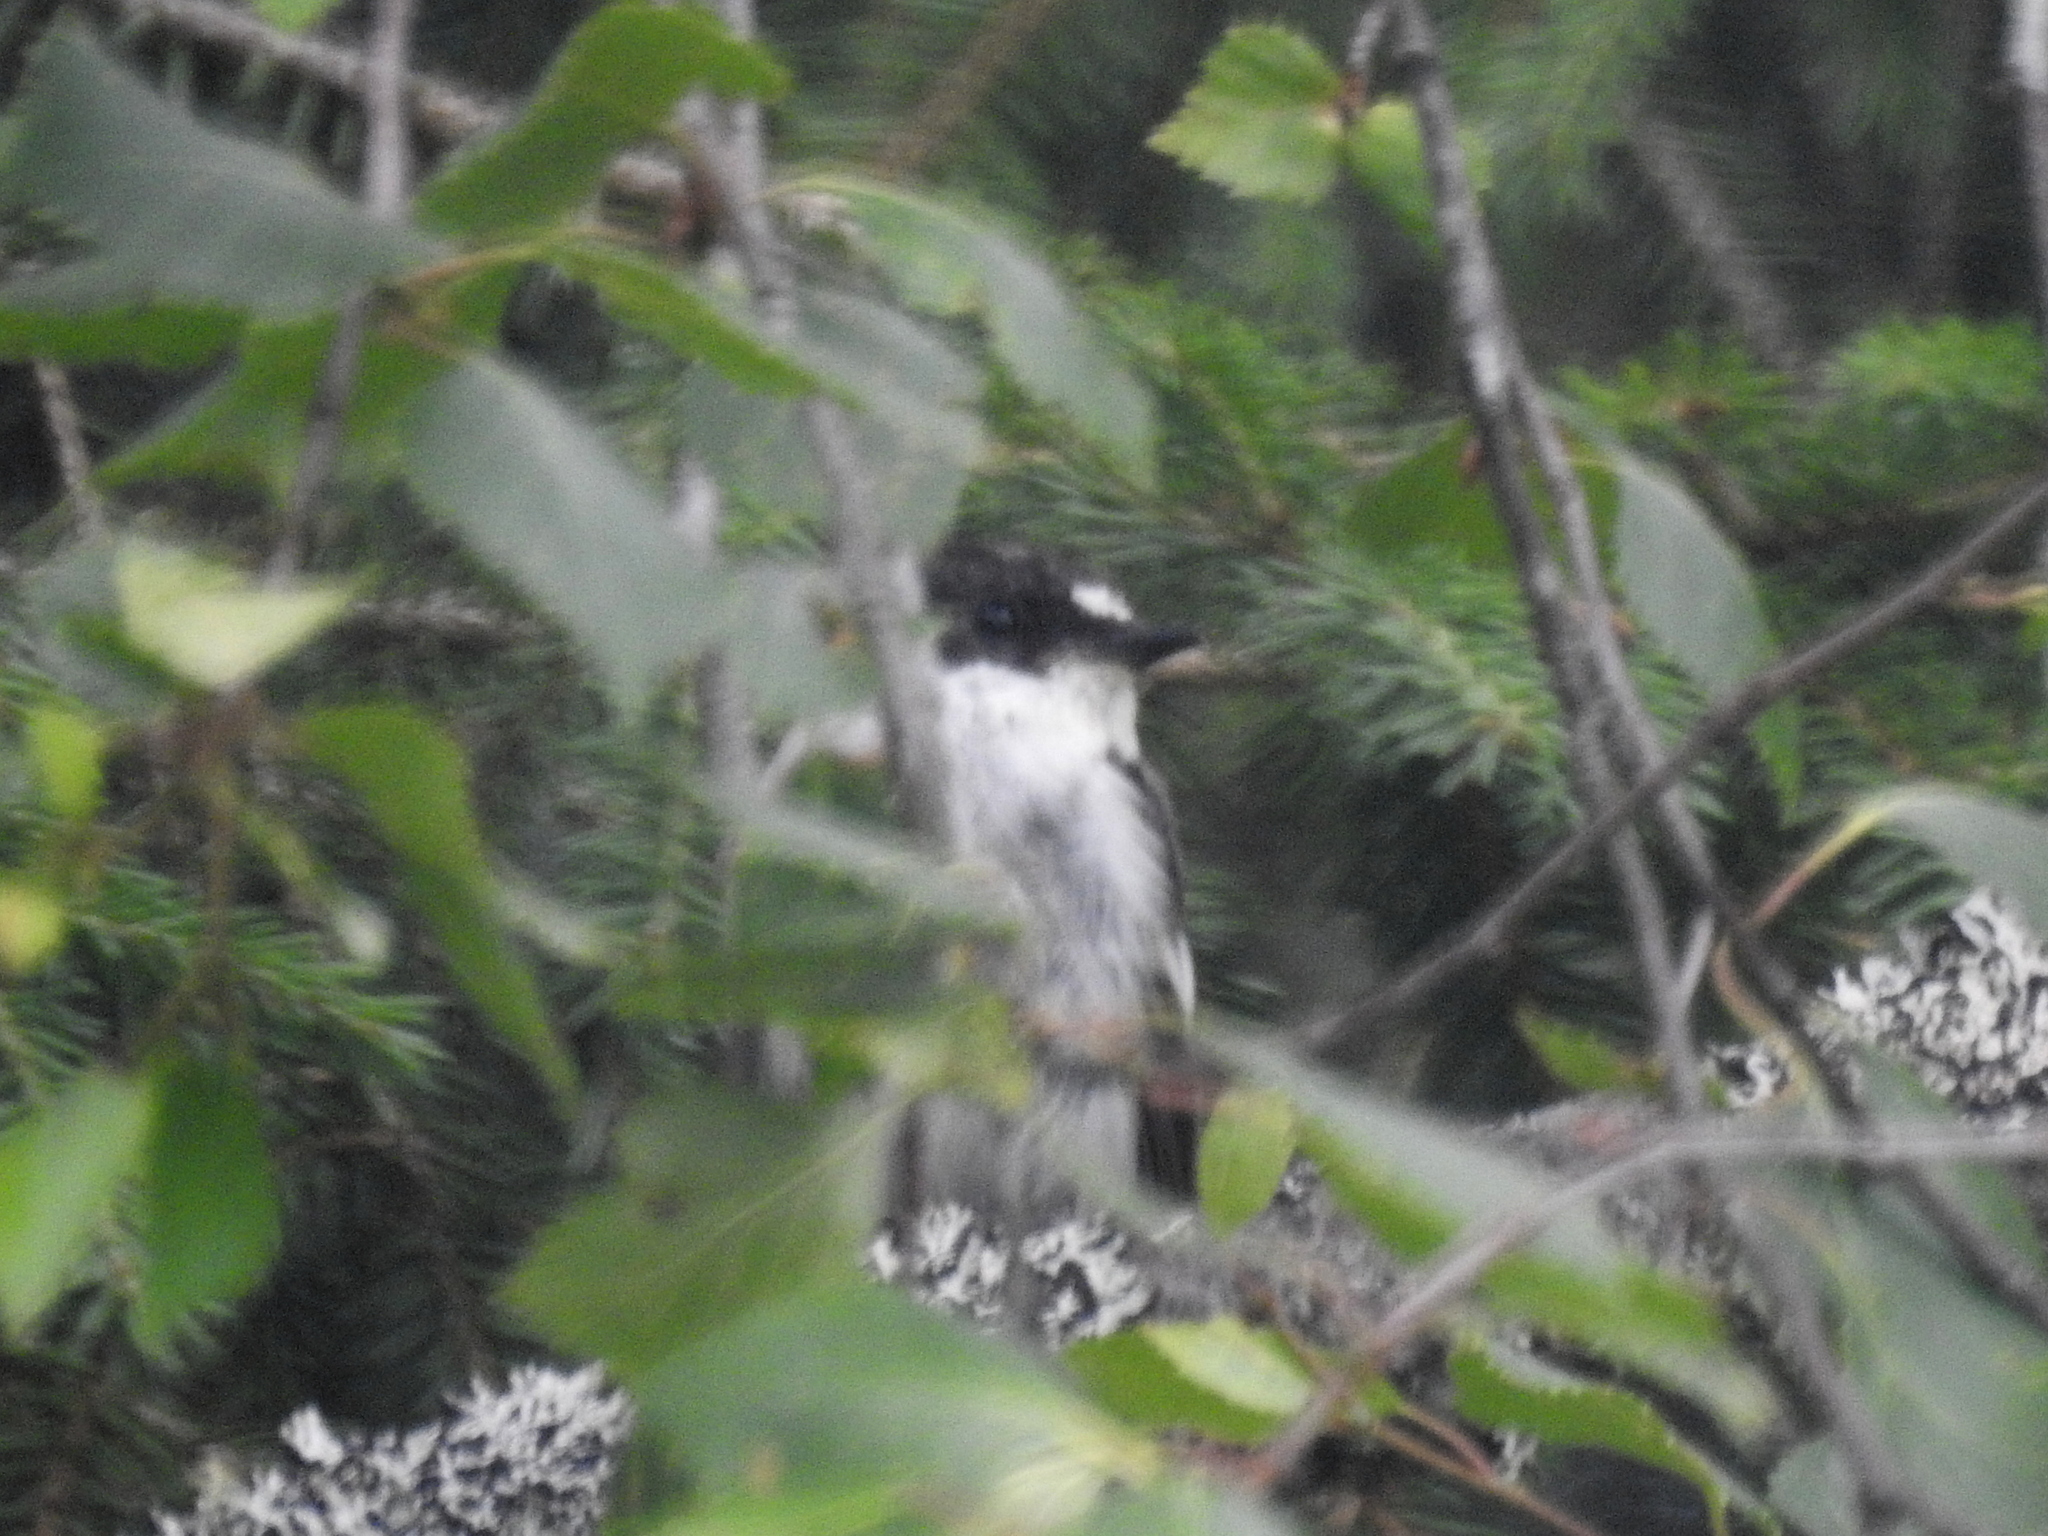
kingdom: Animalia
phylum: Chordata
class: Aves
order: Passeriformes
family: Muscicapidae
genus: Ficedula
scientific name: Ficedula hypoleuca
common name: European pied flycatcher
